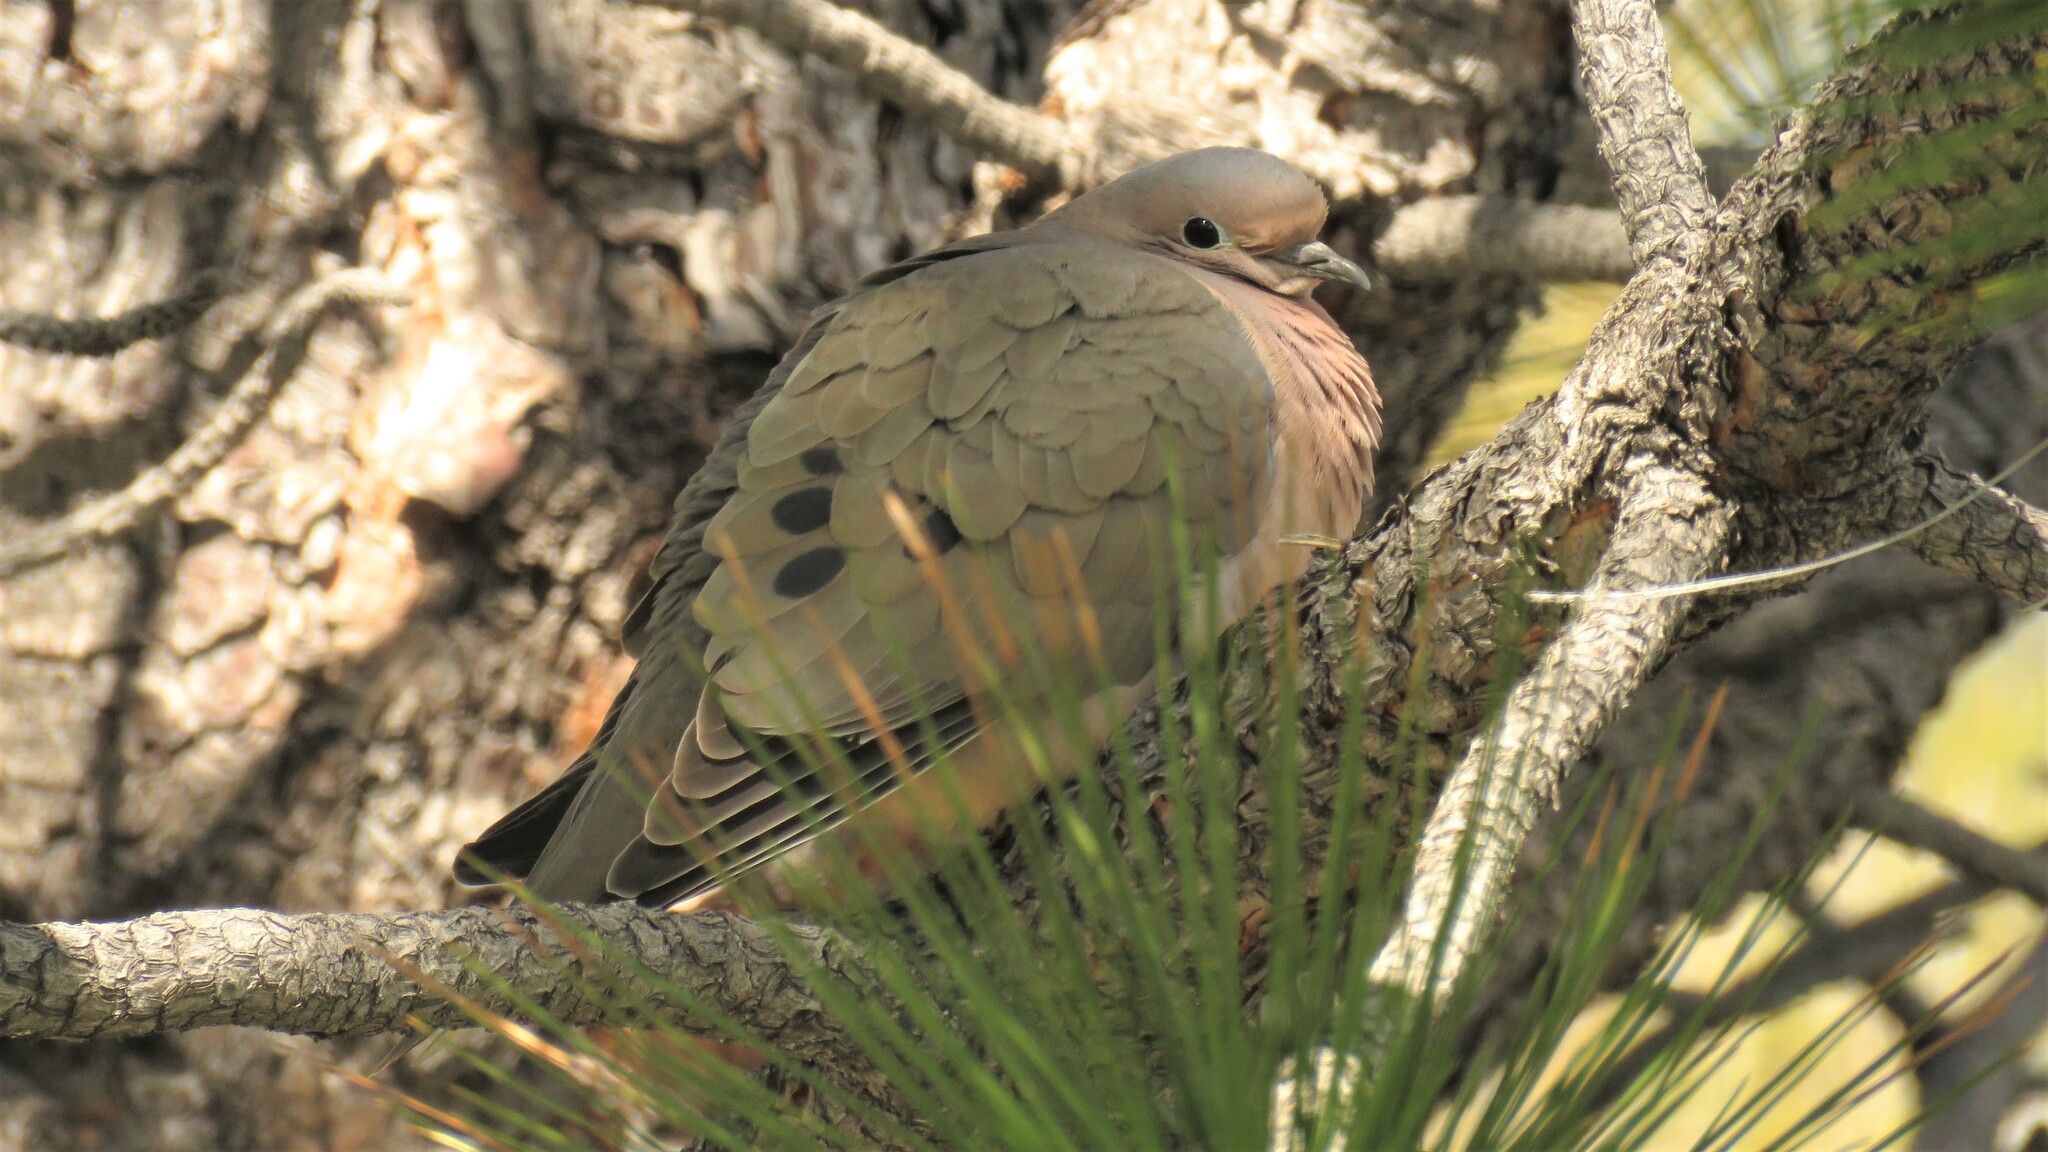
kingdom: Animalia
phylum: Chordata
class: Aves
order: Columbiformes
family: Columbidae
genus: Zenaida
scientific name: Zenaida auriculata
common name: Eared dove
